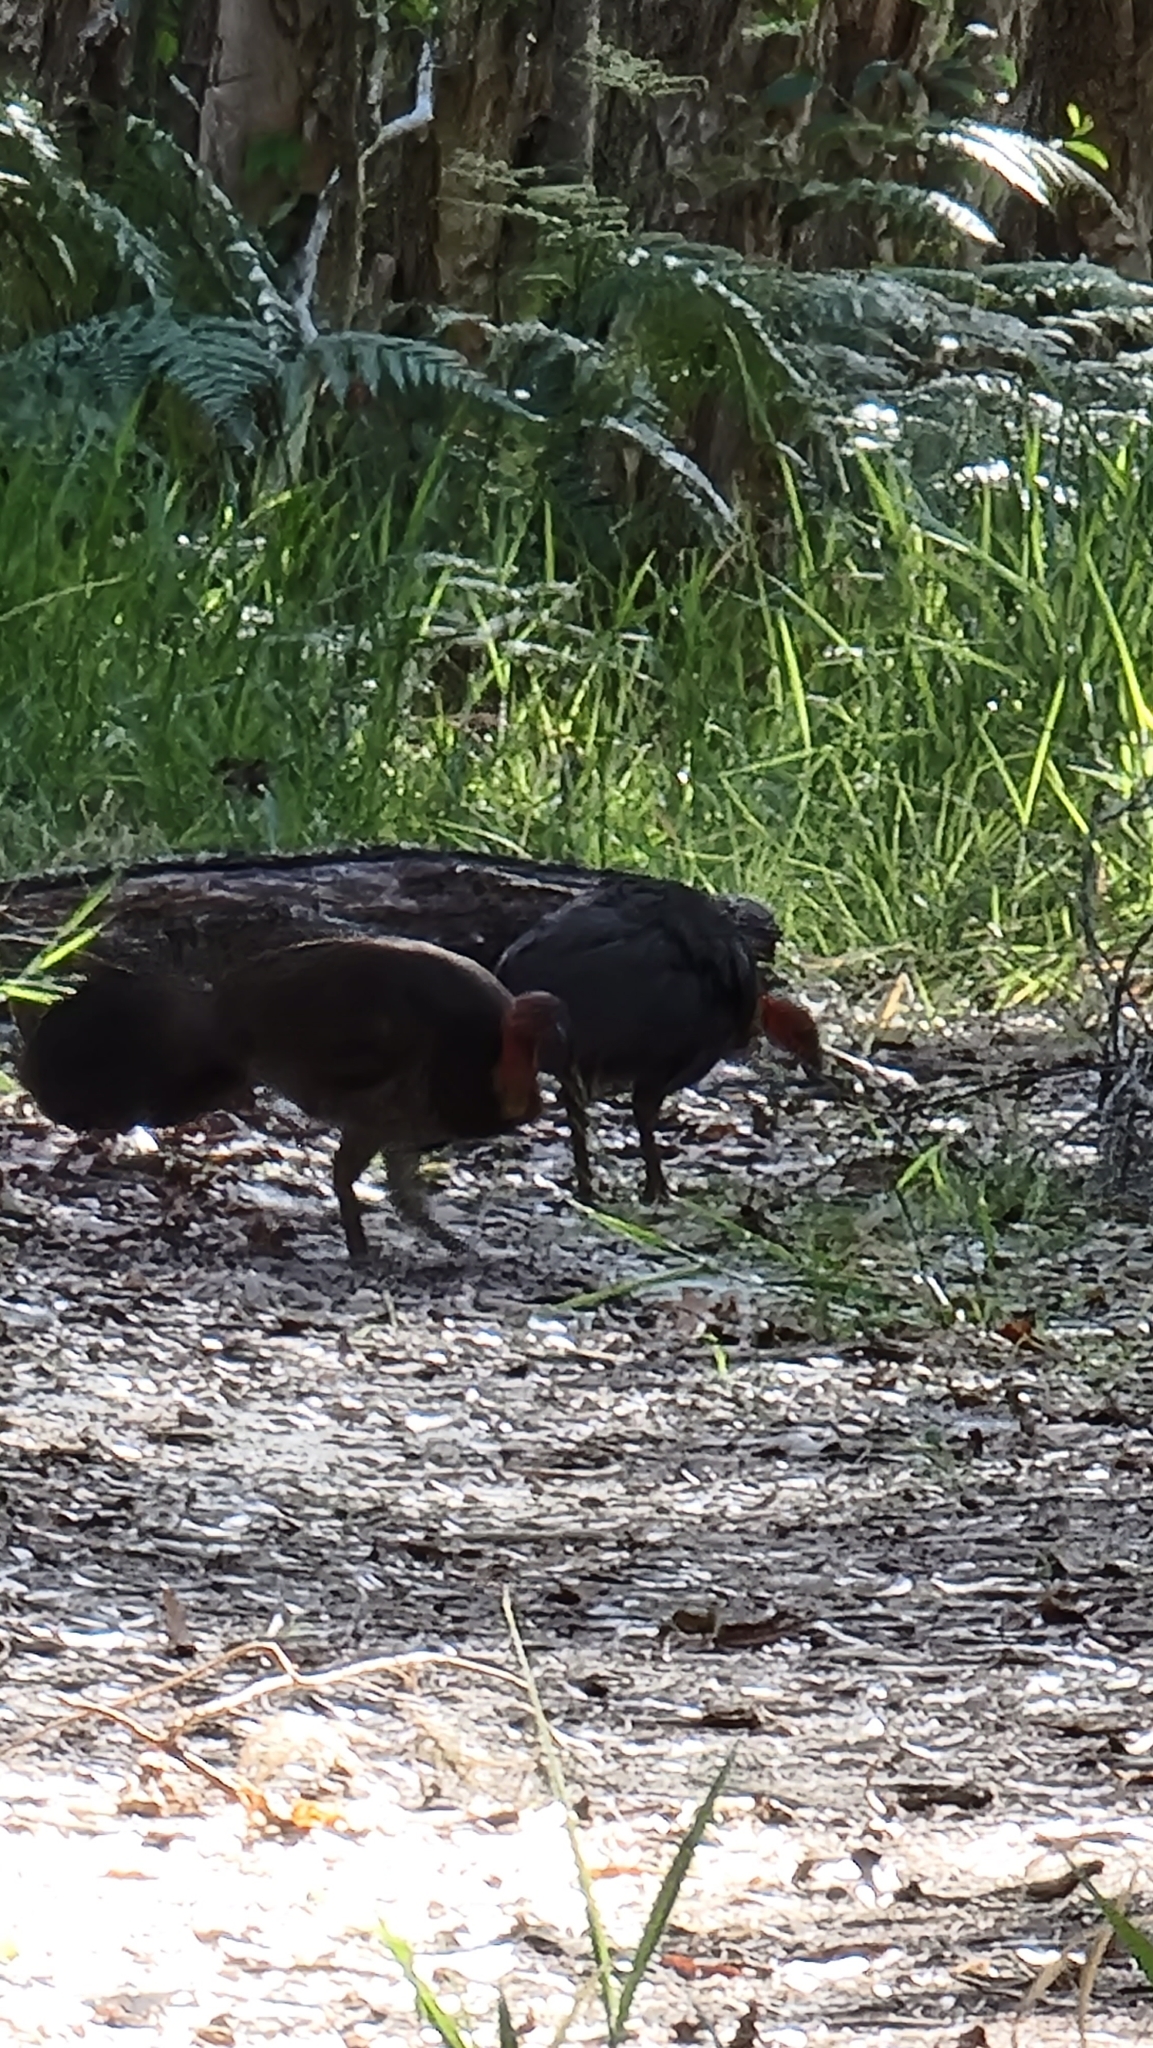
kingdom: Animalia
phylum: Chordata
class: Aves
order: Galliformes
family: Megapodiidae
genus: Alectura
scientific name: Alectura lathami
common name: Australian brushturkey
